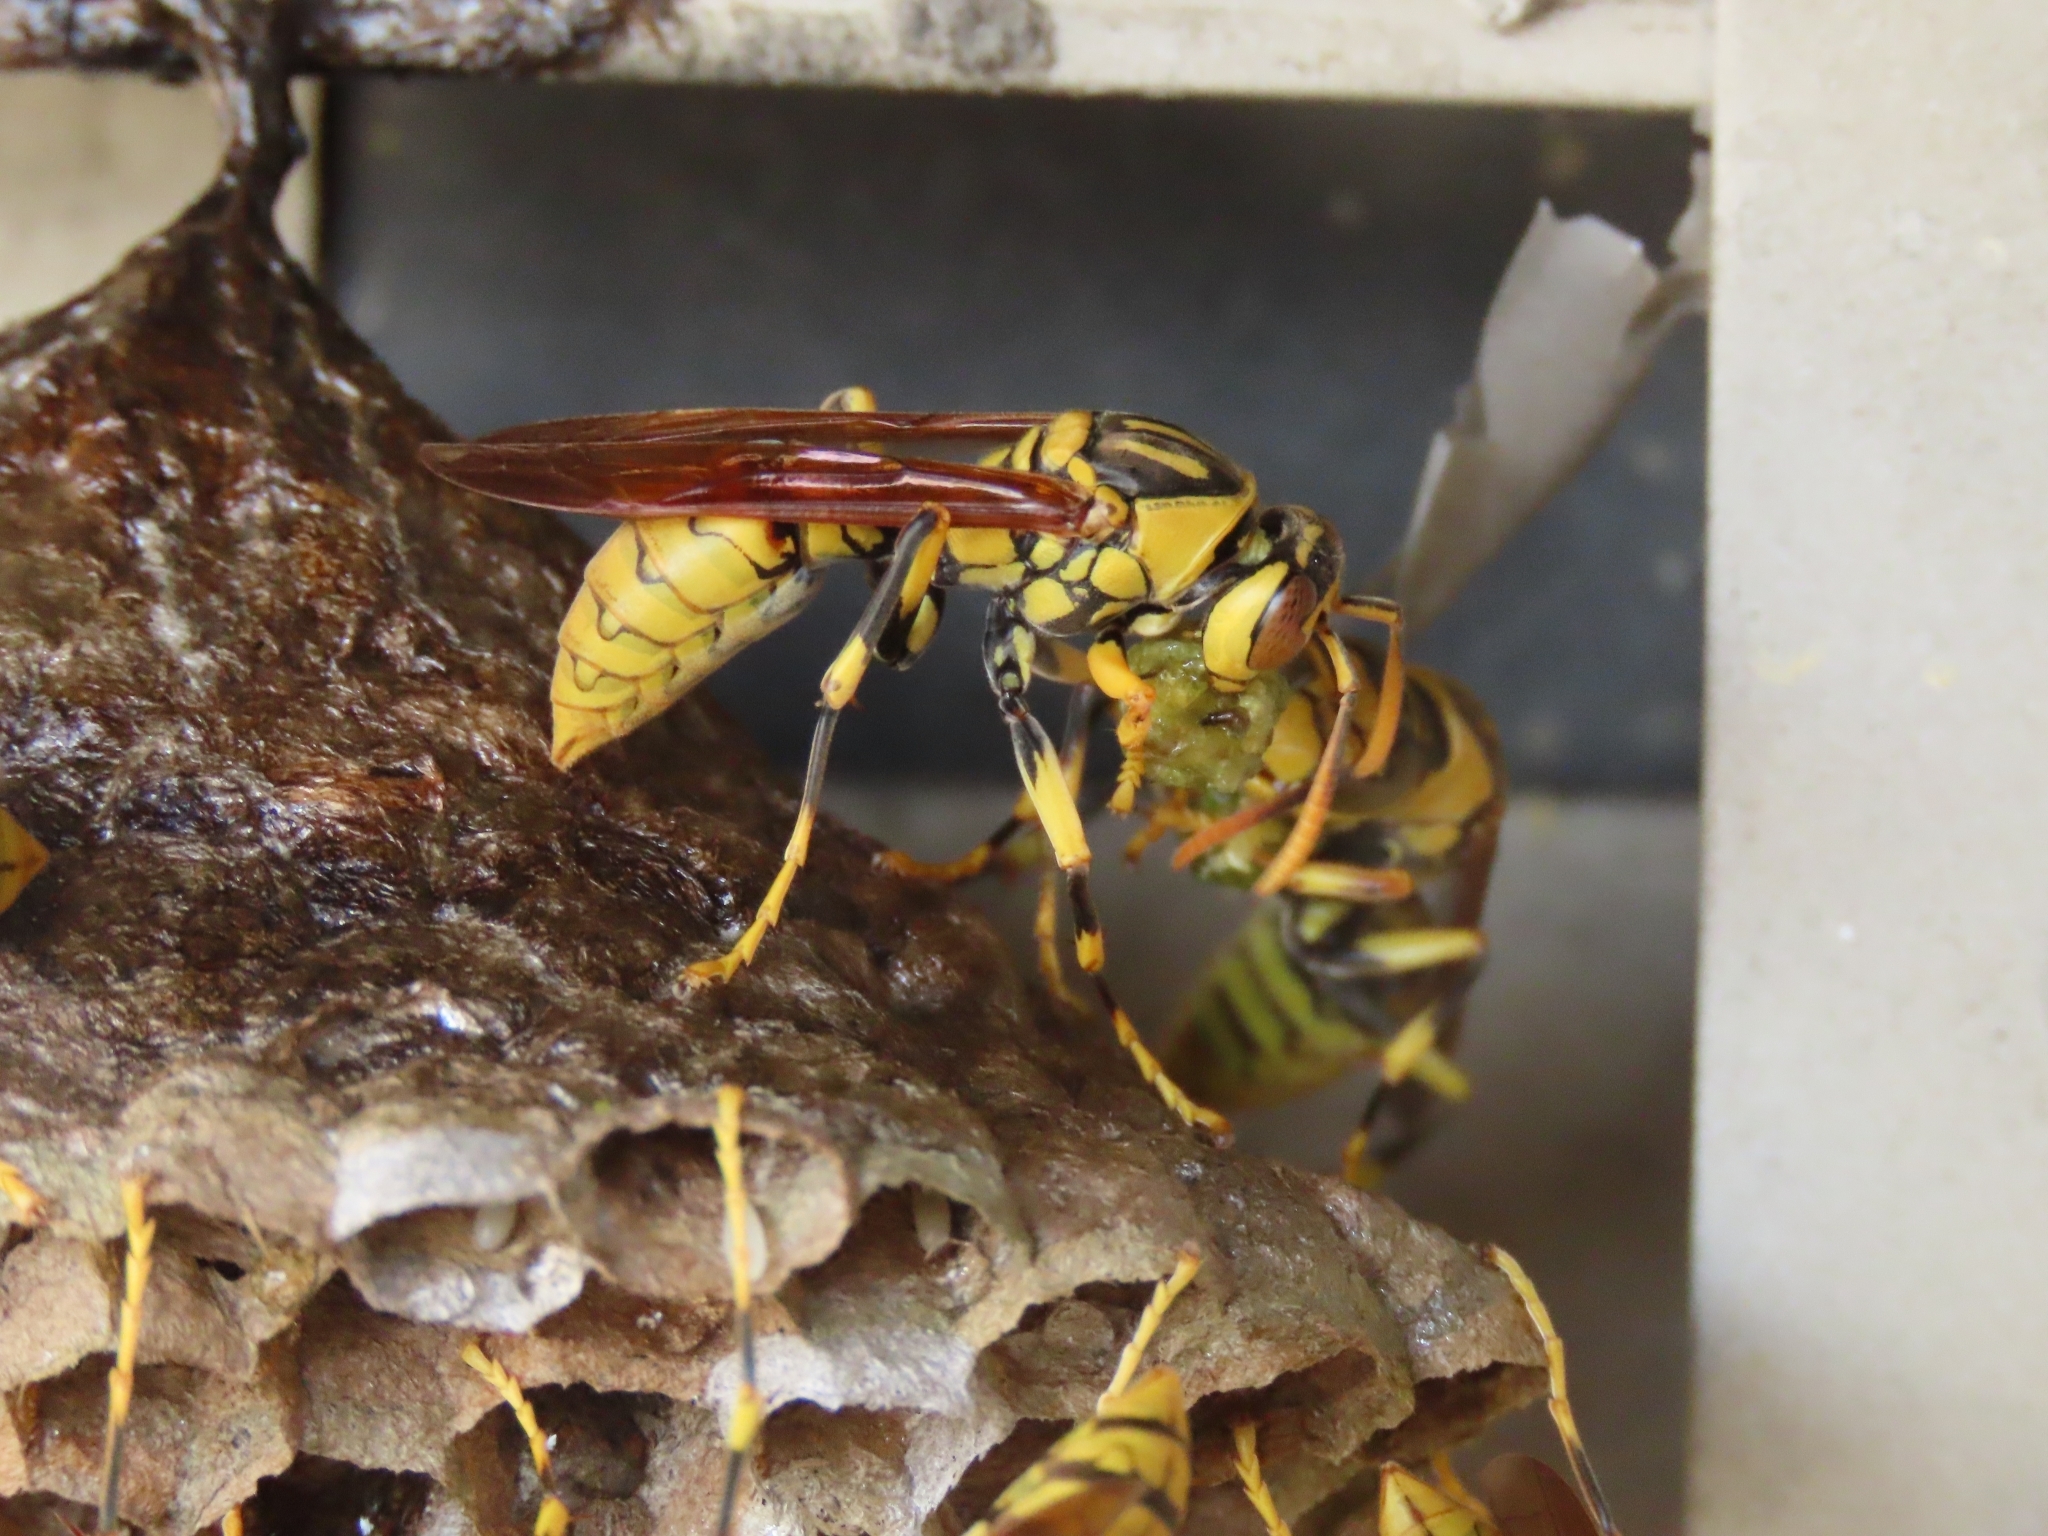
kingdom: Animalia
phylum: Arthropoda
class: Insecta
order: Hymenoptera
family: Eumenidae
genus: Polistes
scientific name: Polistes rothneyi
